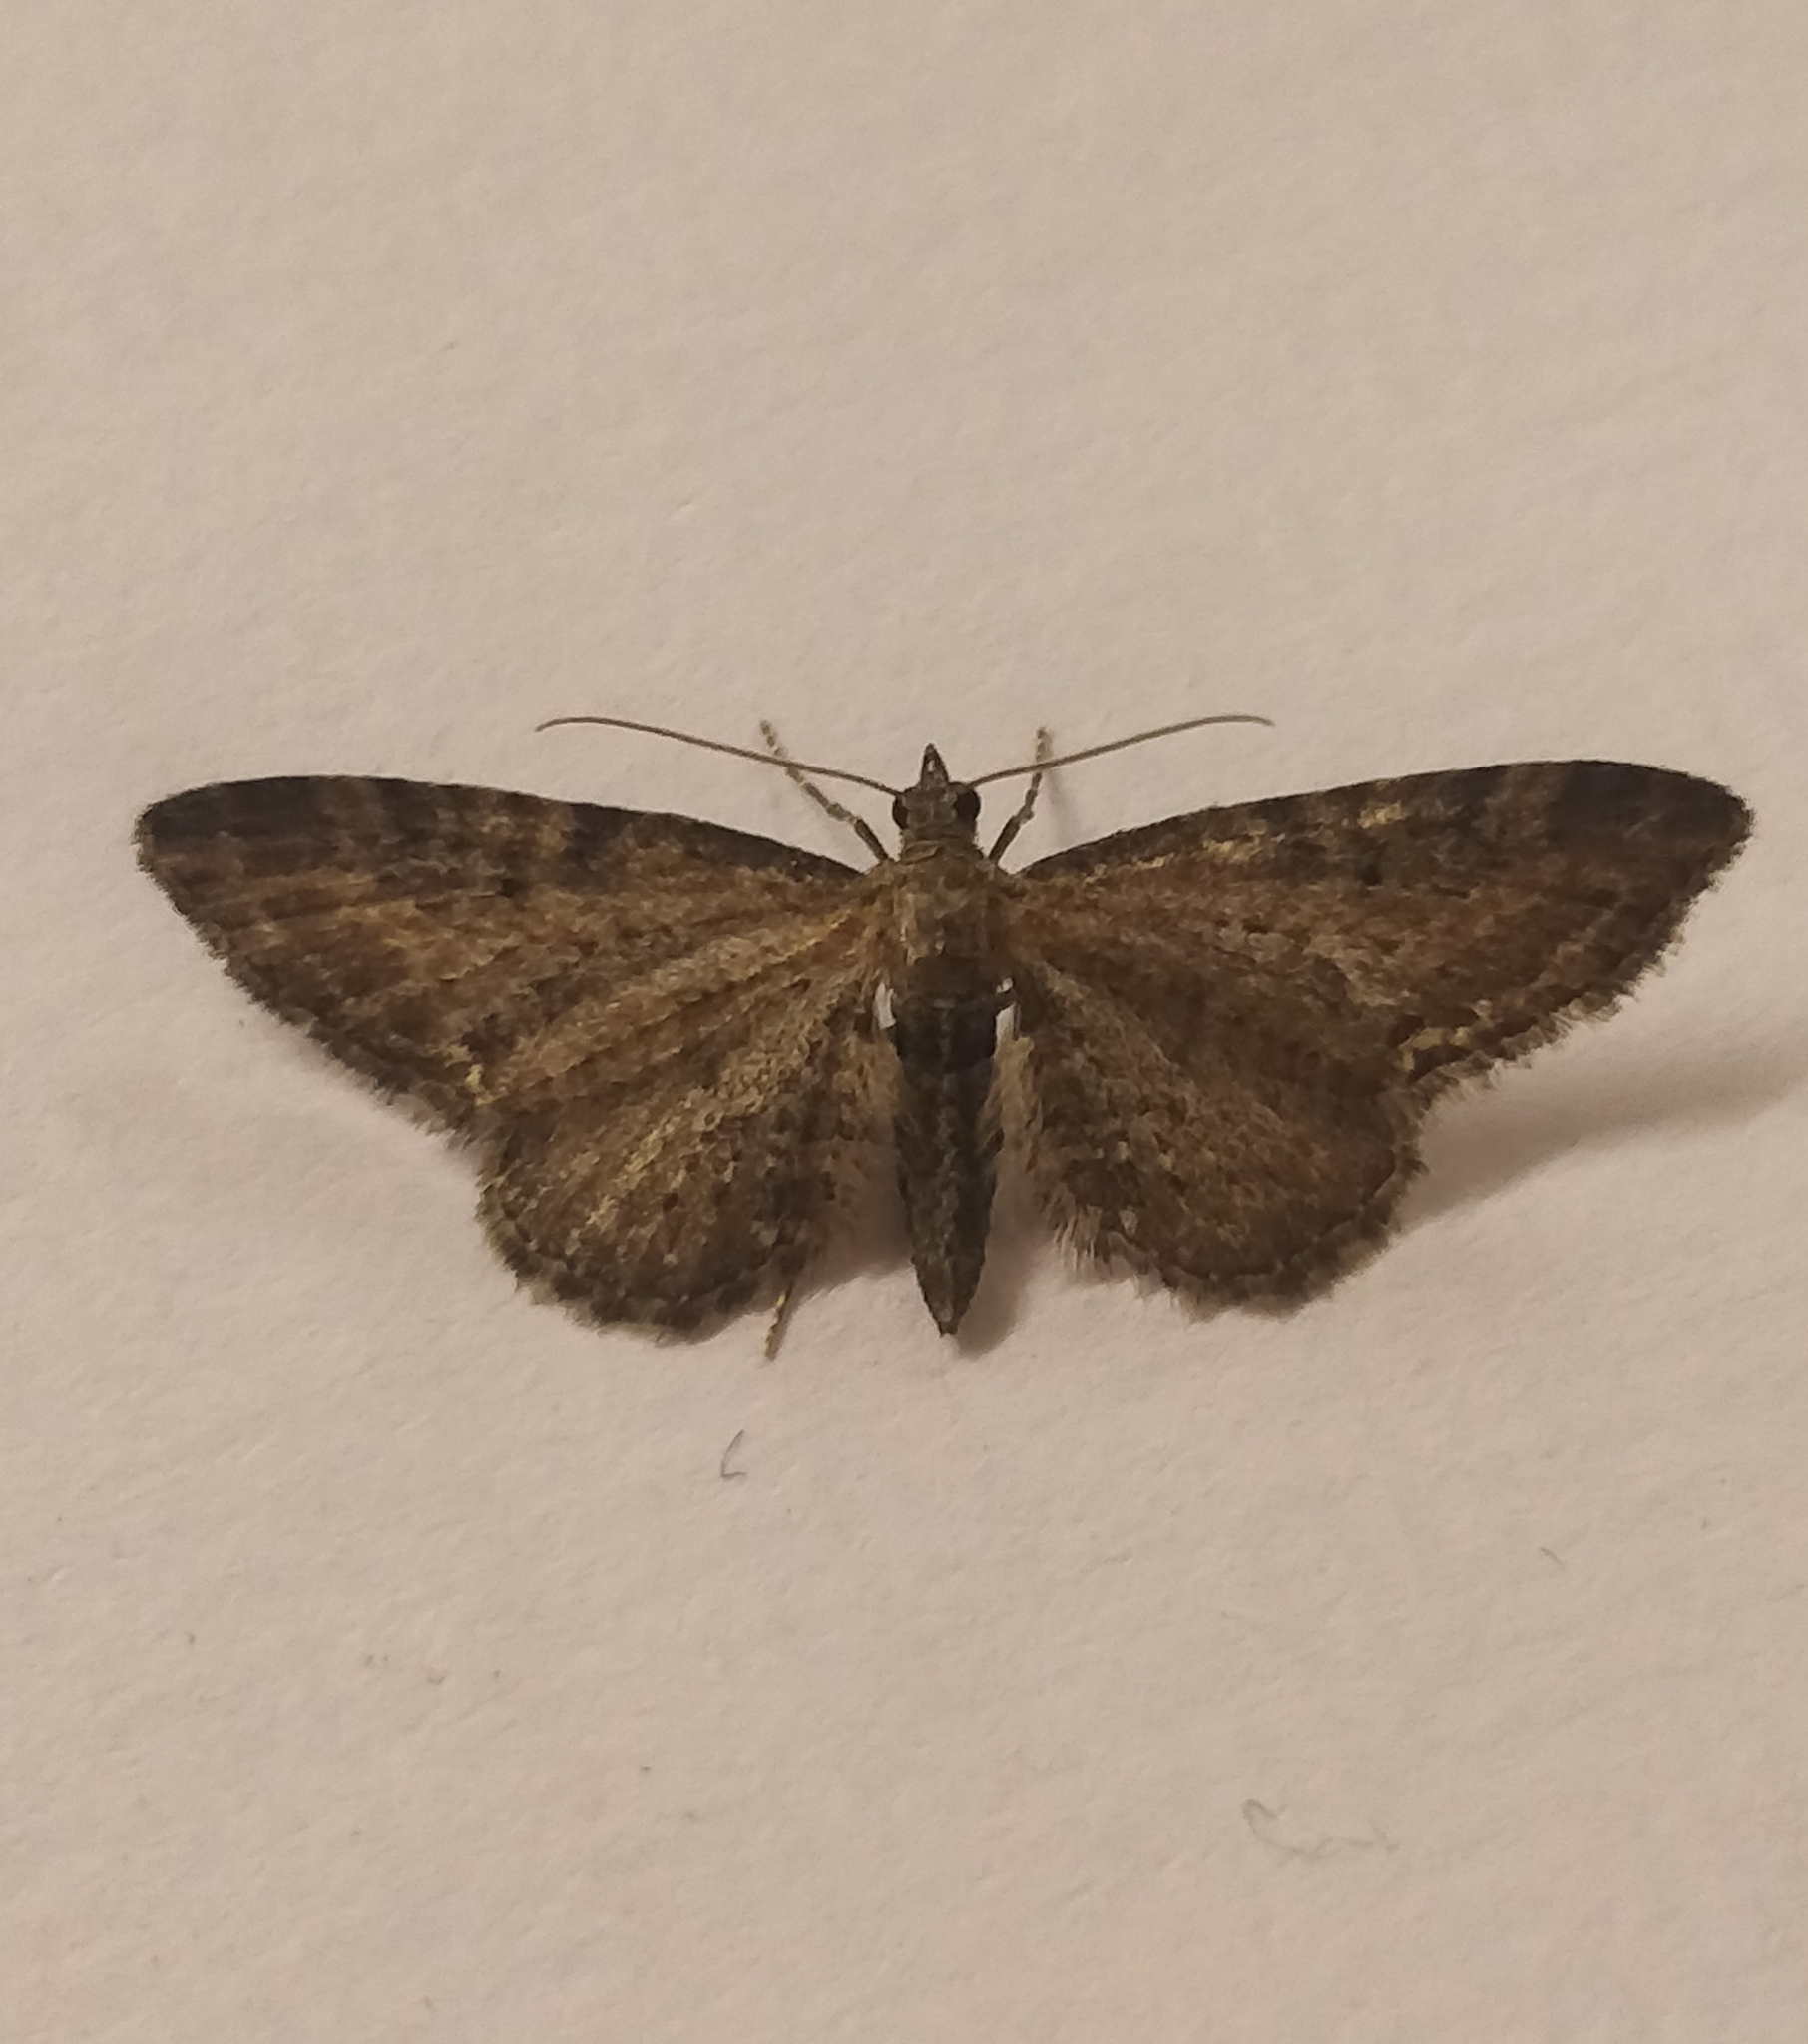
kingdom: Animalia
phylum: Arthropoda
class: Insecta
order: Lepidoptera
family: Geometridae
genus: Eupithecia
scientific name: Eupithecia vulgata
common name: Common pug
